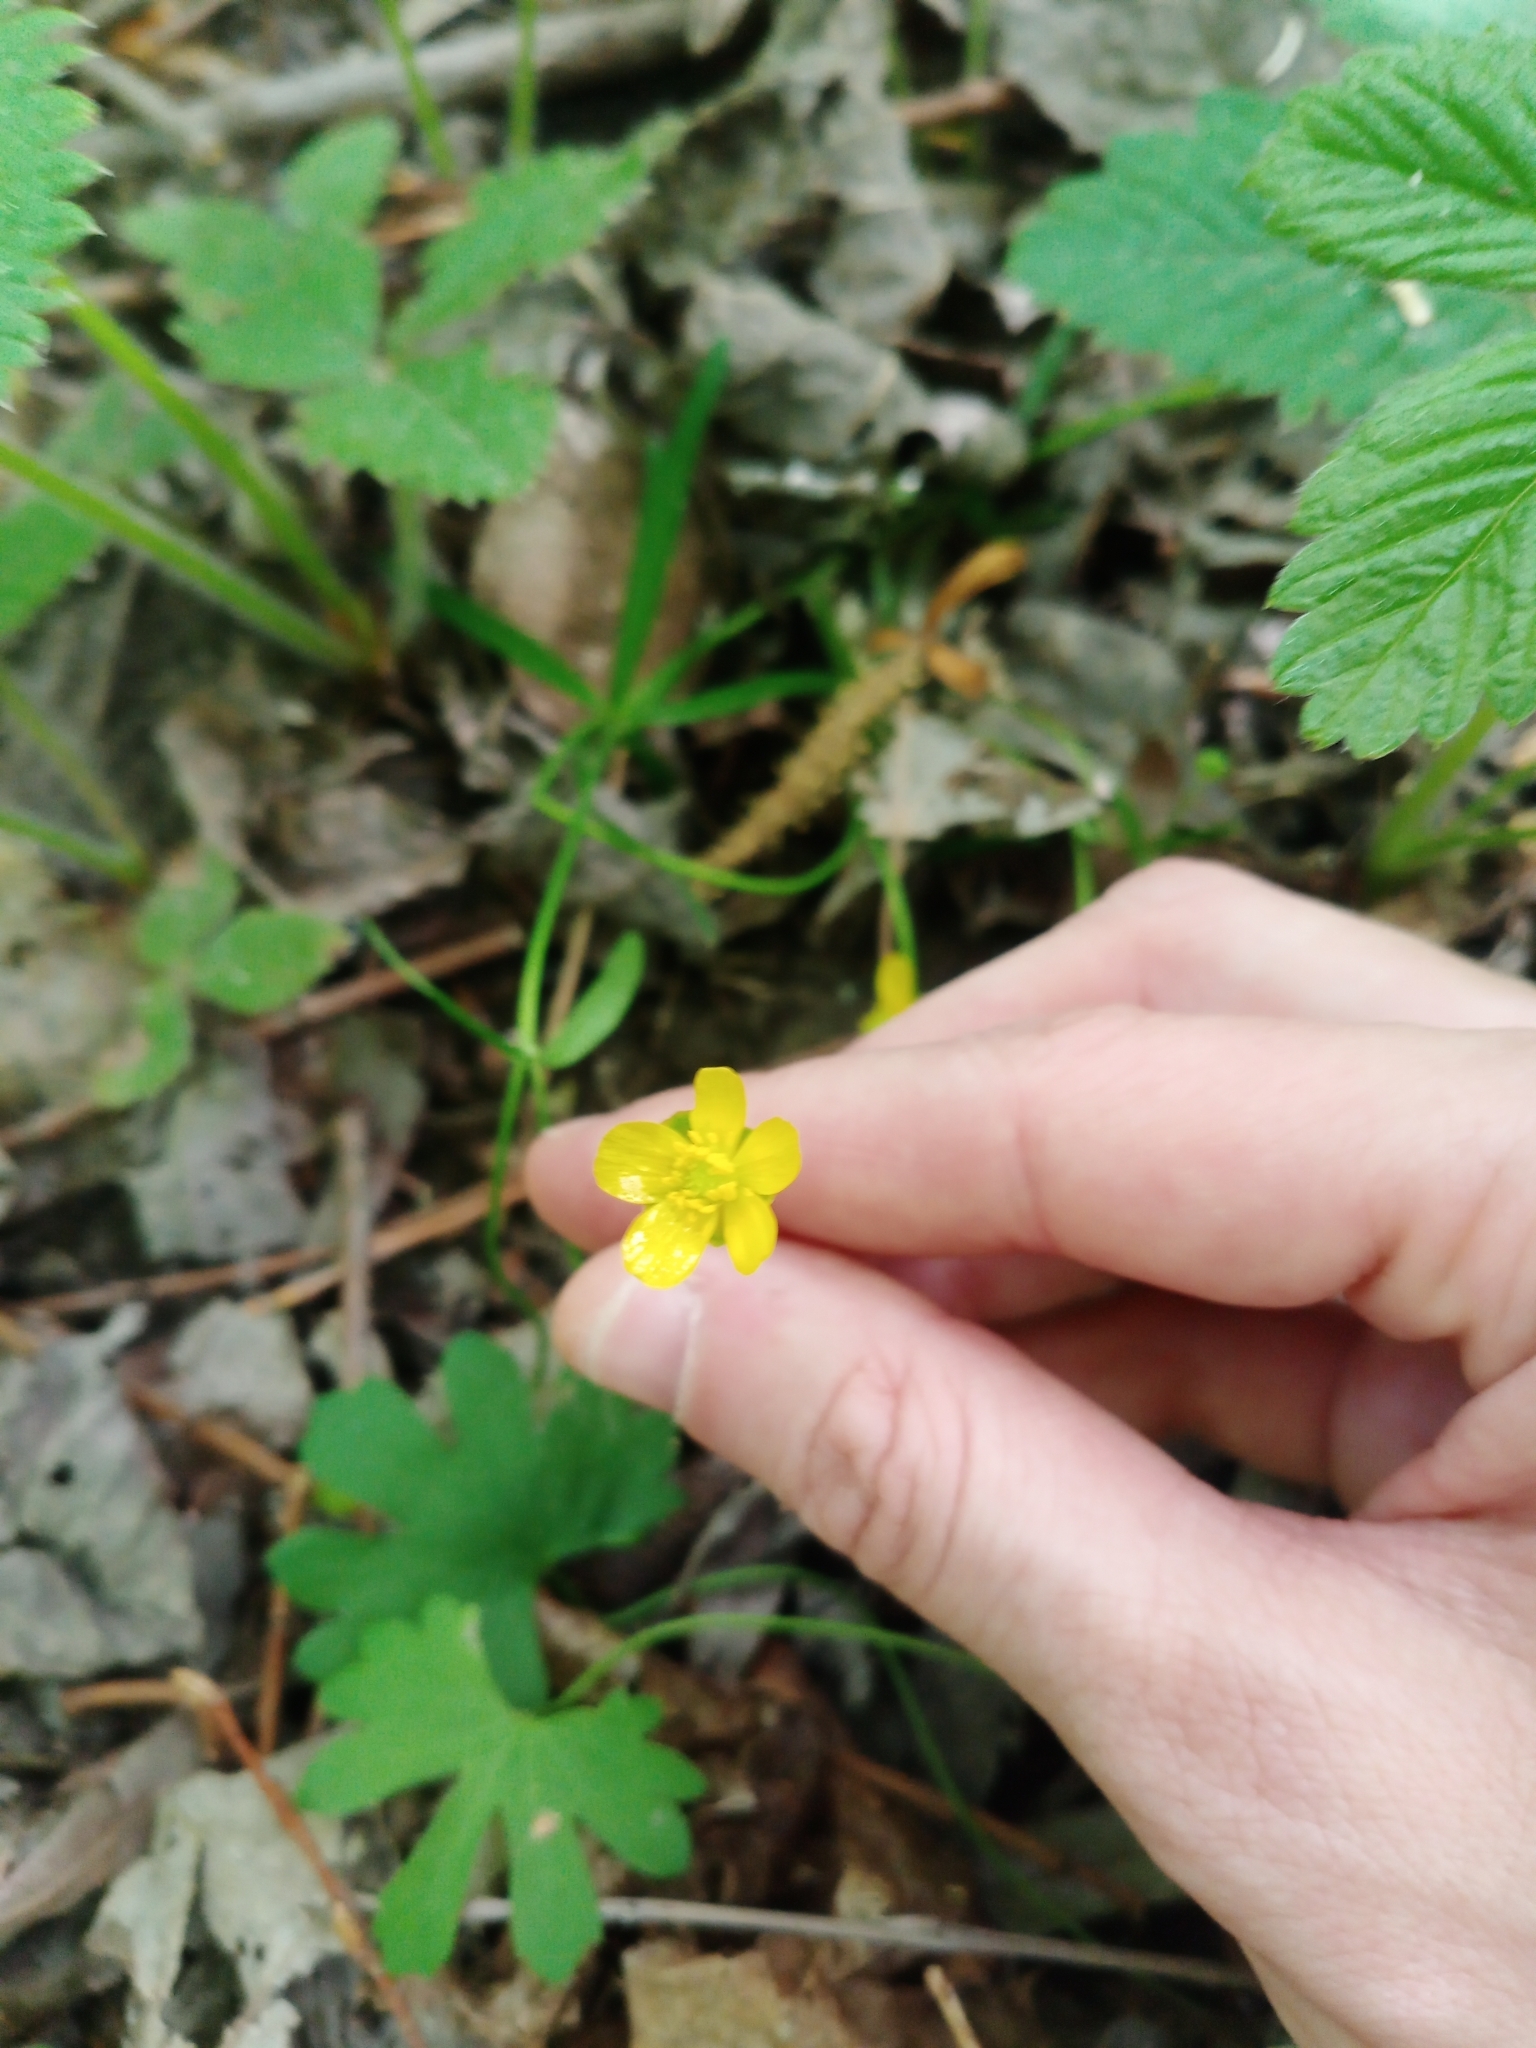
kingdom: Plantae
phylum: Tracheophyta
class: Magnoliopsida
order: Ranunculales
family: Ranunculaceae
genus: Ranunculus
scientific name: Ranunculus auricomus
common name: Goldilocks buttercup
